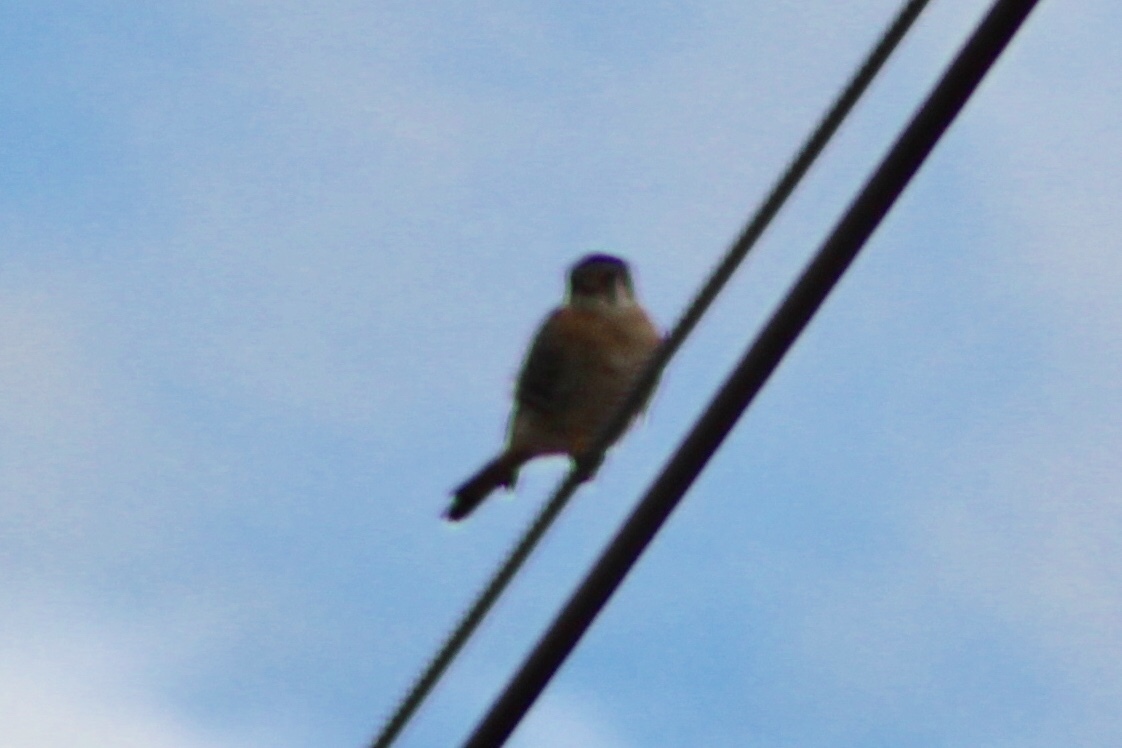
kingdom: Animalia
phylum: Chordata
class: Aves
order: Falconiformes
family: Falconidae
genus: Falco
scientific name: Falco sparverius
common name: American kestrel
